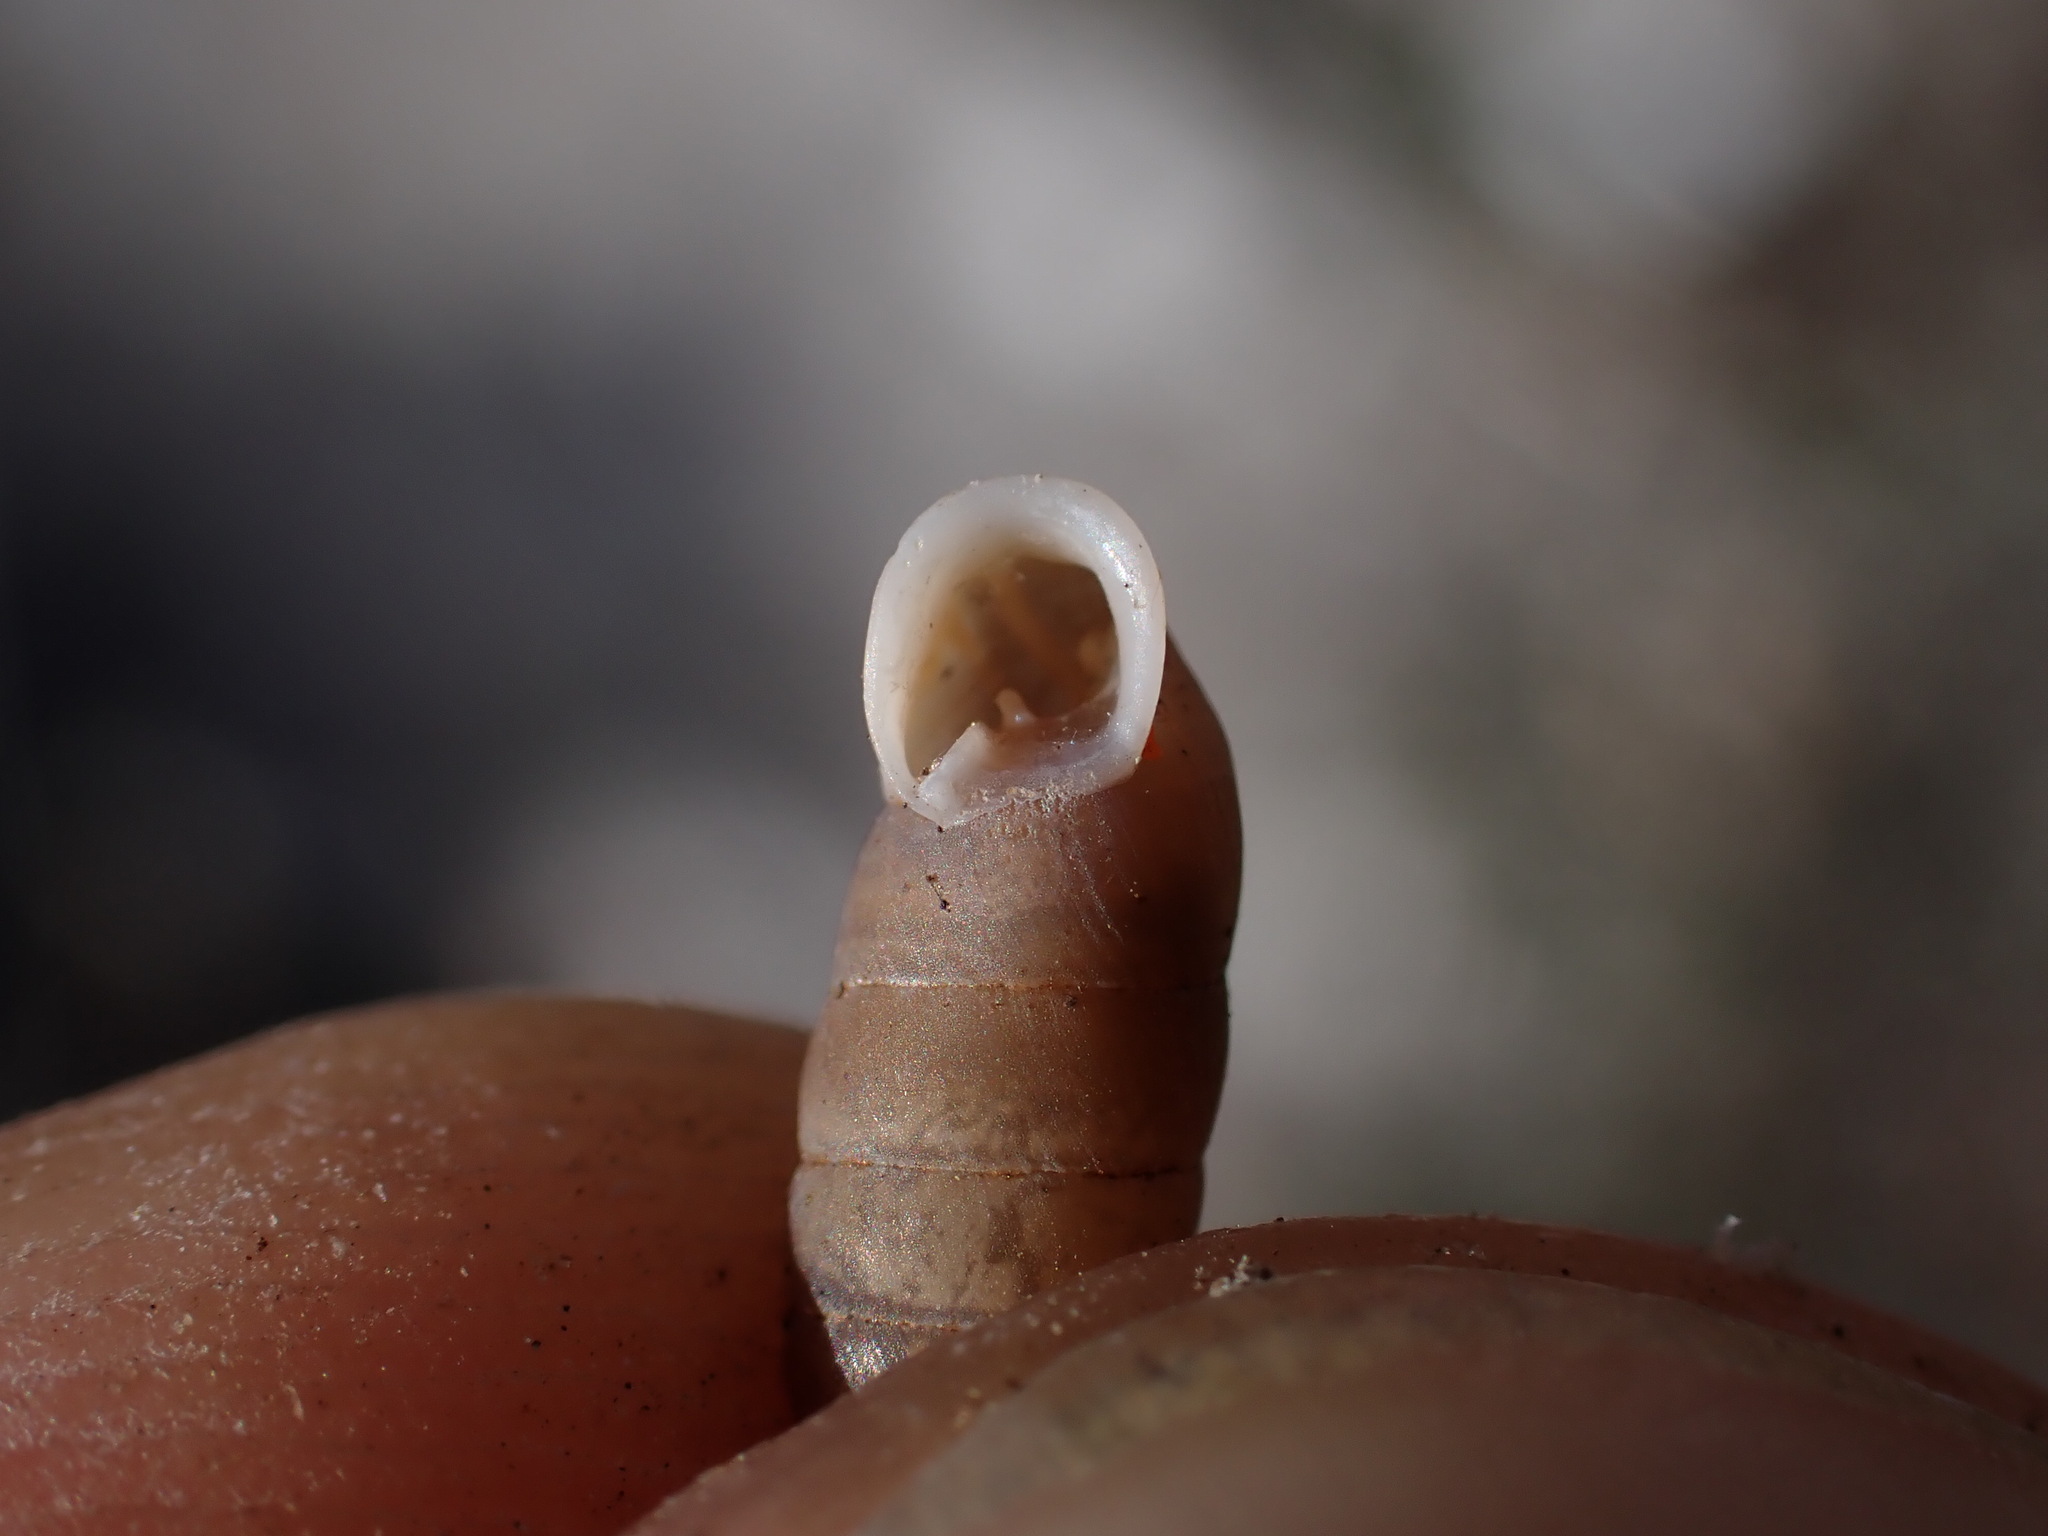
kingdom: Animalia
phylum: Mollusca
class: Gastropoda
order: Stylommatophora
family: Chondrinidae
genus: Granaria
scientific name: Granaria variabilis
